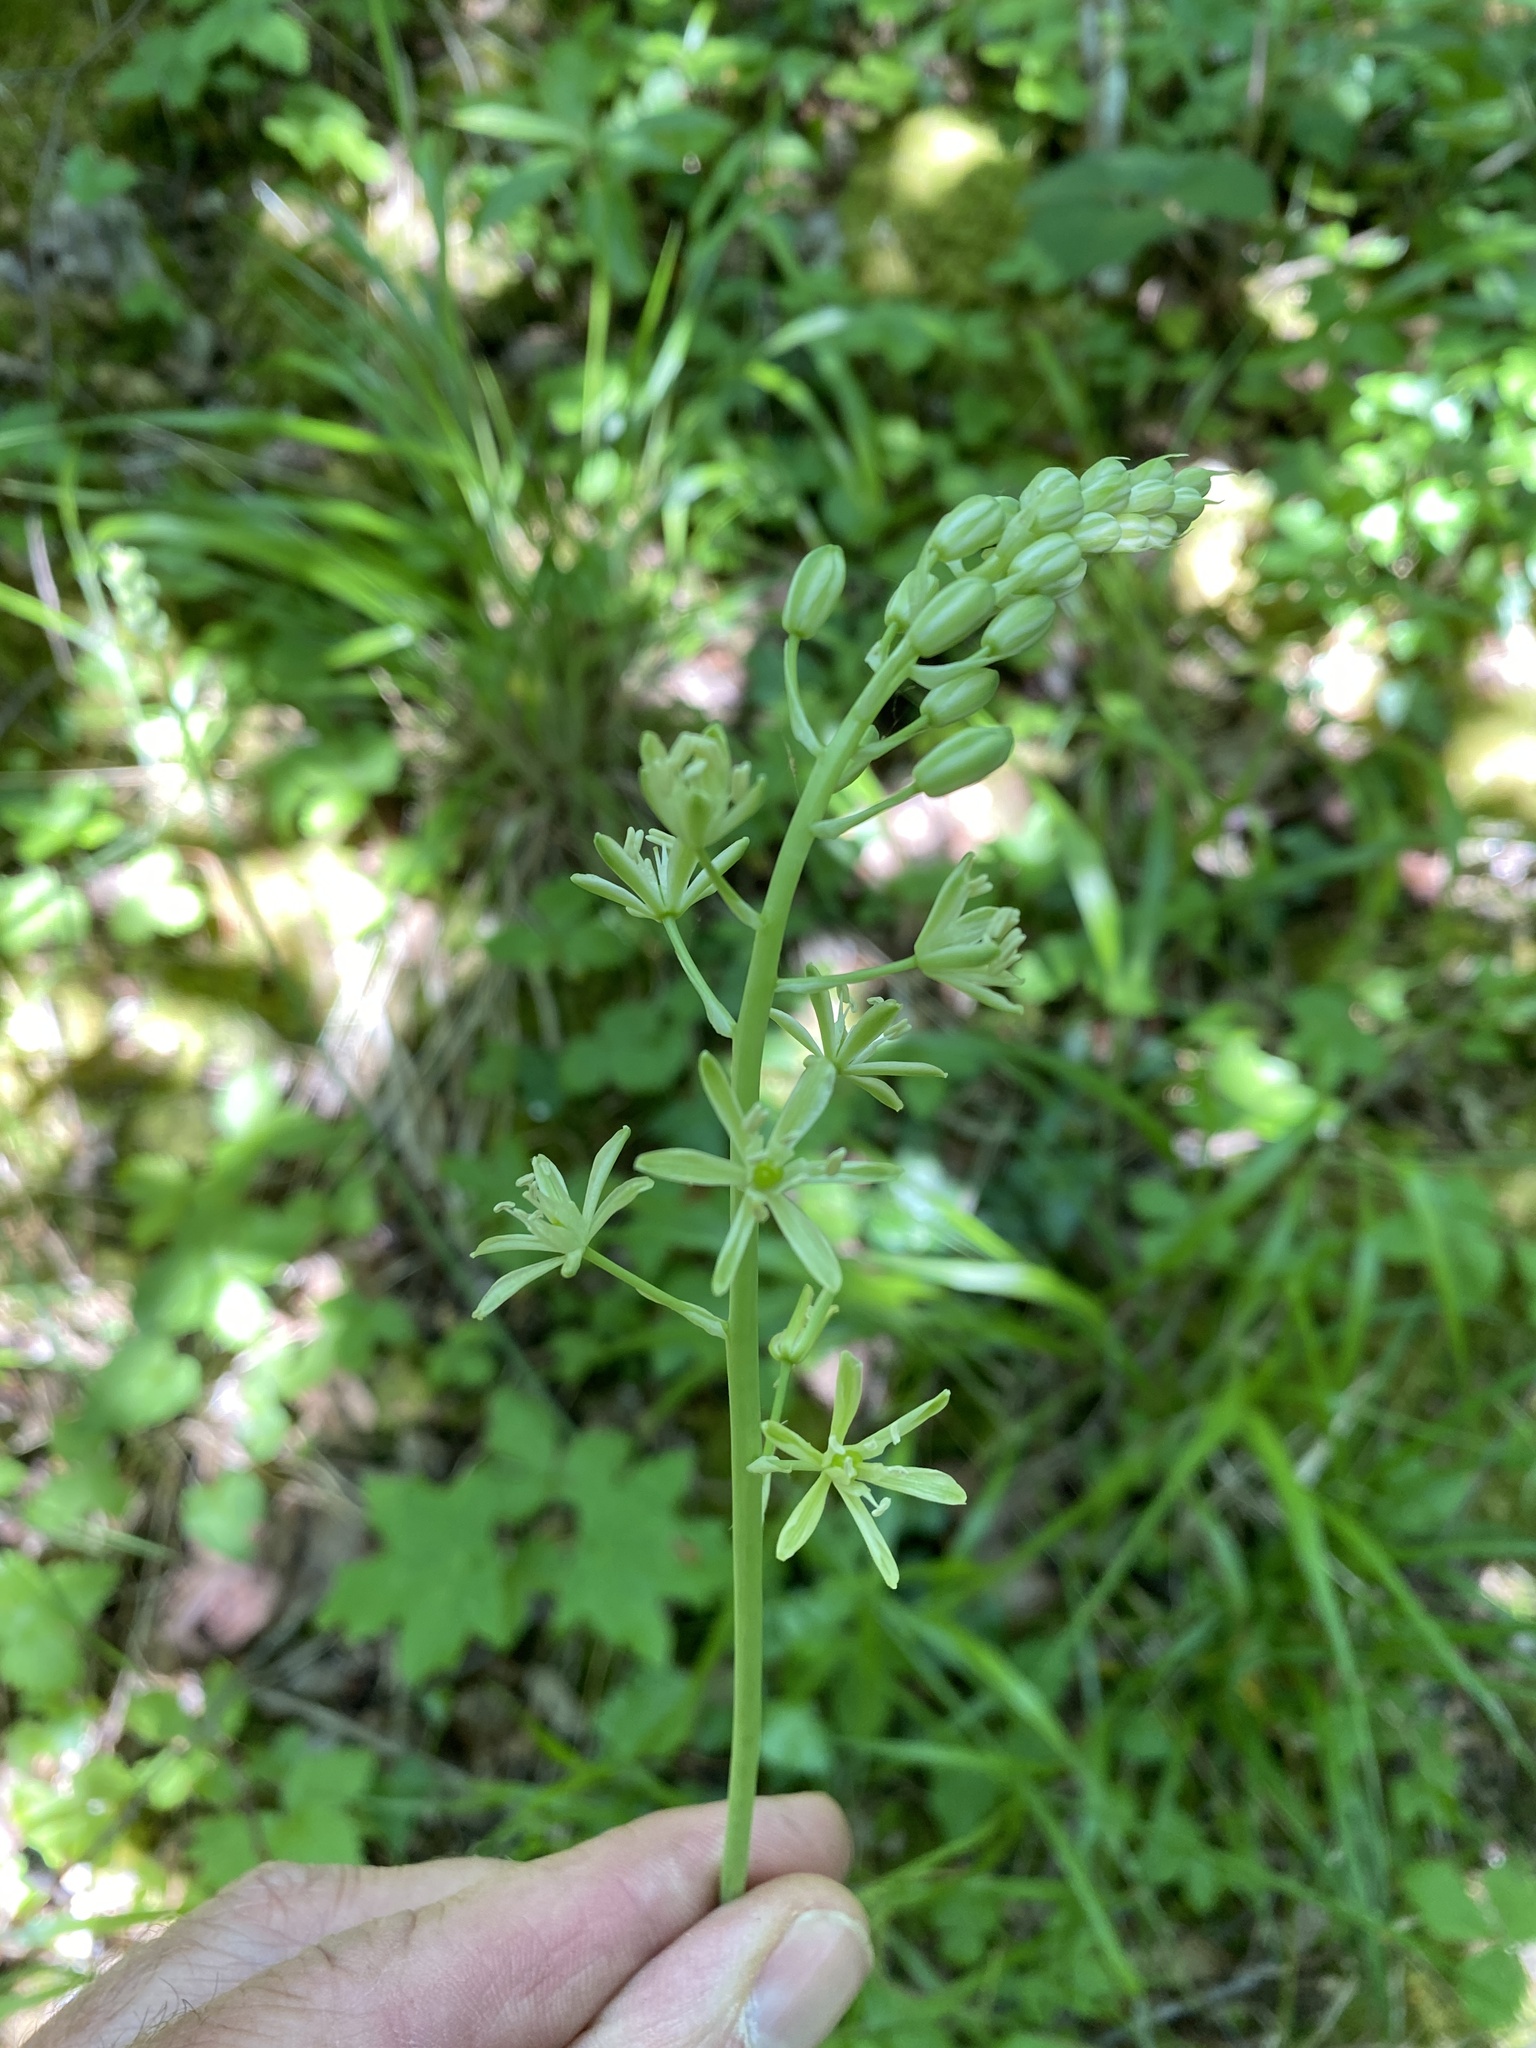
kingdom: Plantae
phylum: Tracheophyta
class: Liliopsida
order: Asparagales
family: Asparagaceae
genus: Ornithogalum
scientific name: Ornithogalum pyrenaicum
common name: Spiked star-of-bethlehem
